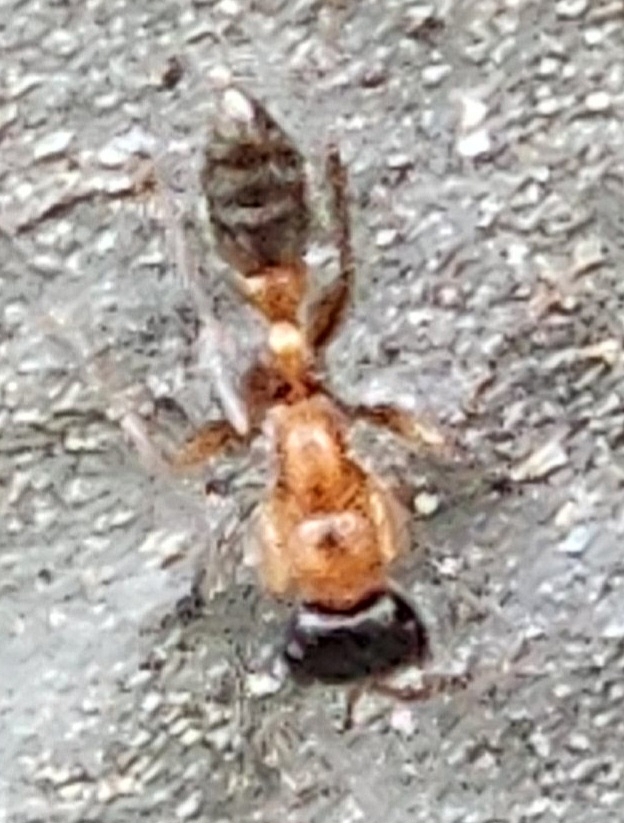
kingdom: Animalia
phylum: Arthropoda
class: Insecta
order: Hymenoptera
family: Formicidae
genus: Pseudomyrmex
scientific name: Pseudomyrmex gracilis
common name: Graceful twig ant
